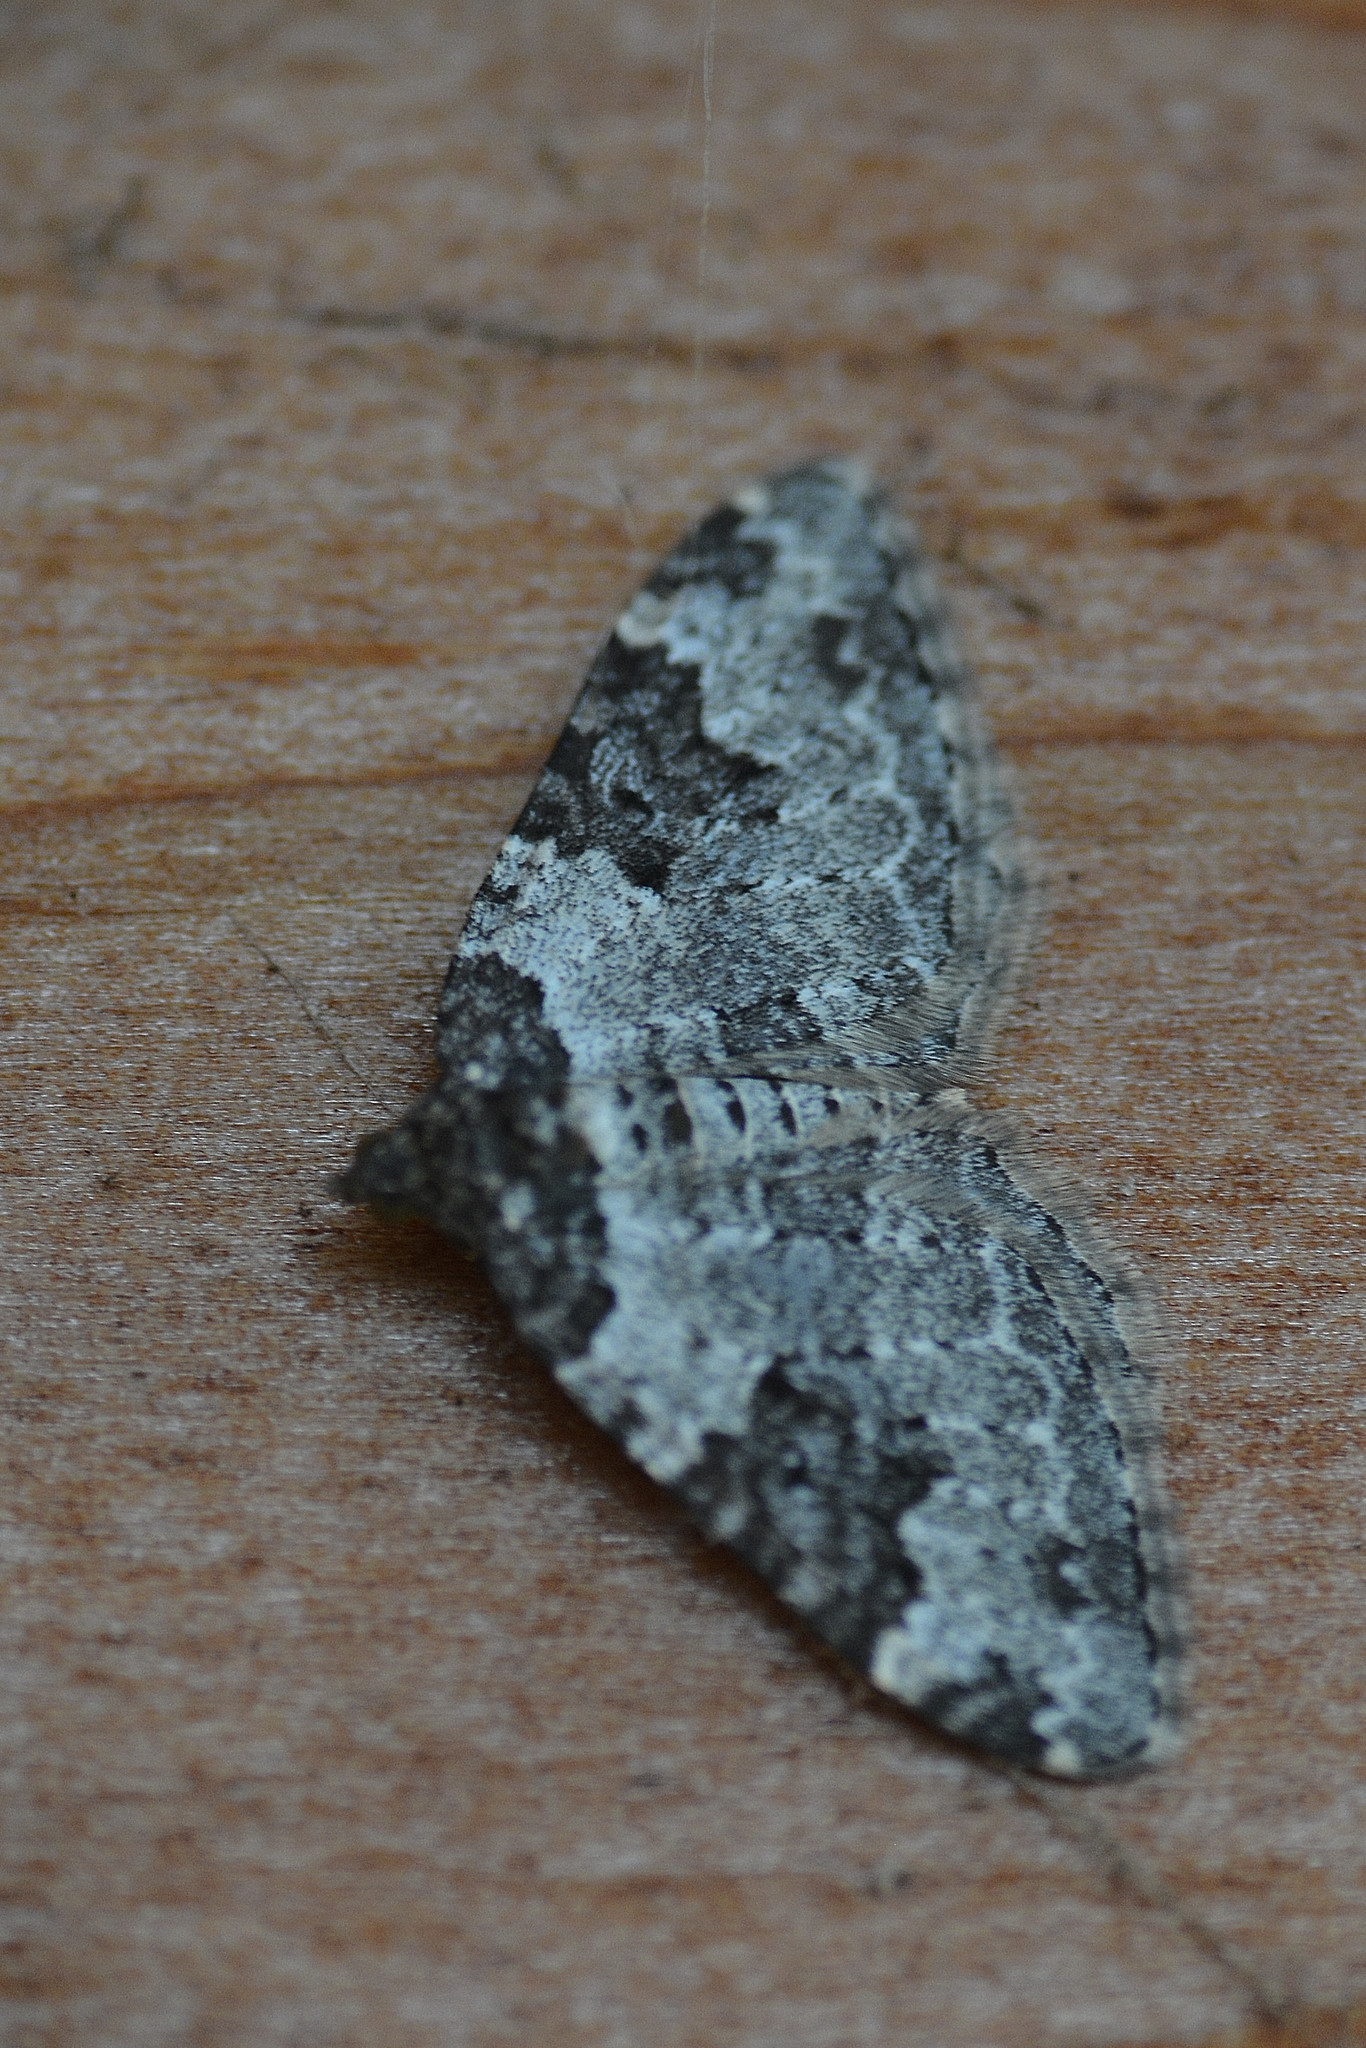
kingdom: Animalia
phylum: Arthropoda
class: Insecta
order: Lepidoptera
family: Geometridae
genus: Xanthorhoe
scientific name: Xanthorhoe fluctuata
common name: Garden carpet
